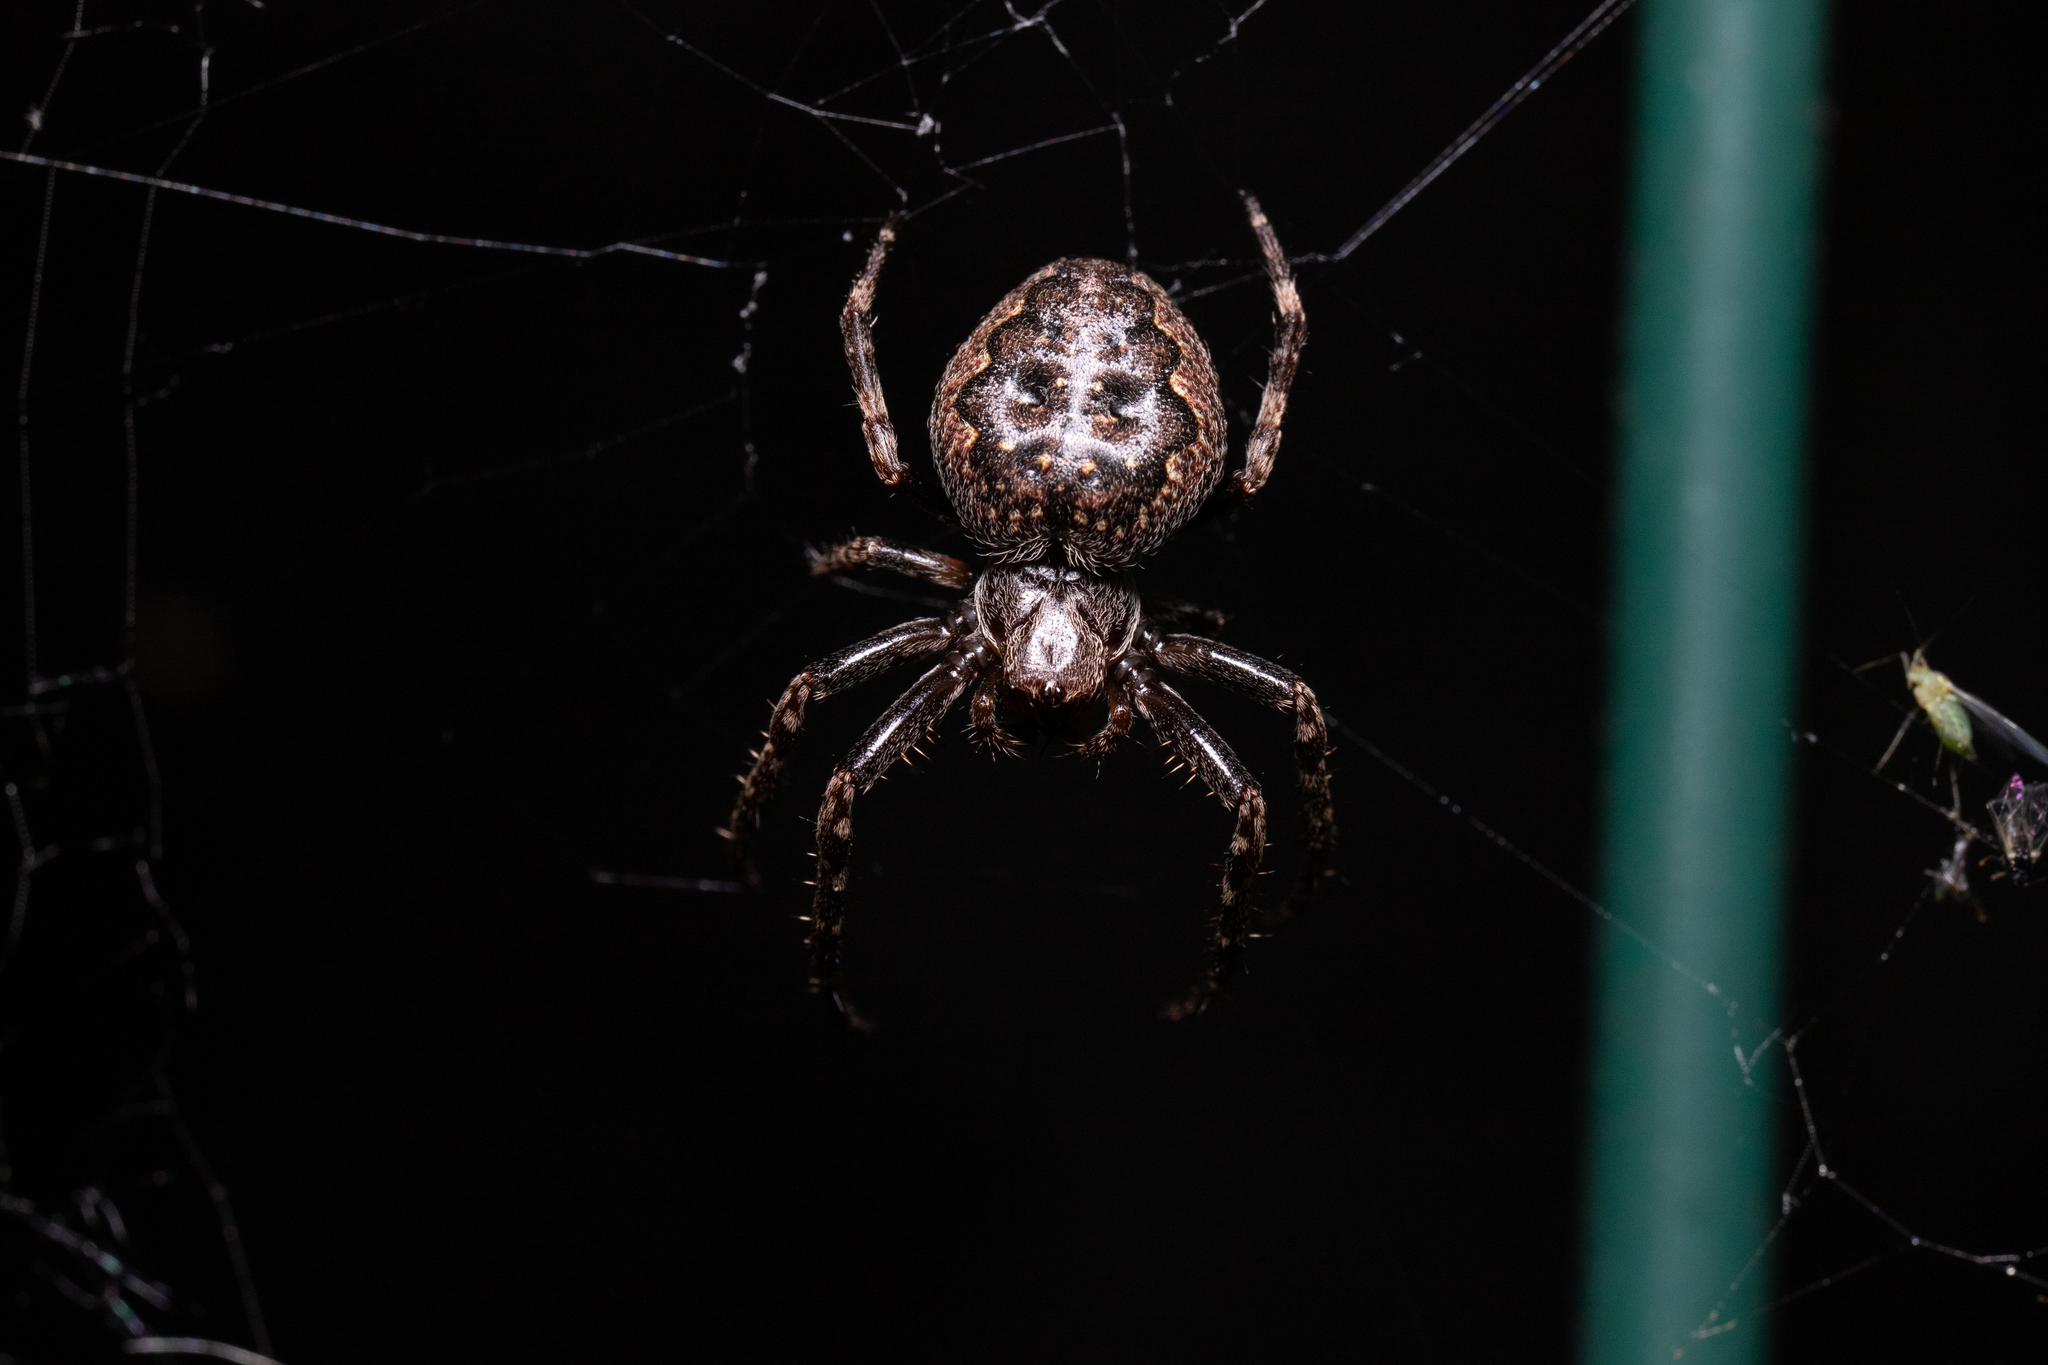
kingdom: Animalia
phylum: Arthropoda
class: Arachnida
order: Araneae
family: Araneidae
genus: Nuctenea
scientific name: Nuctenea umbratica
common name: Toad spider
